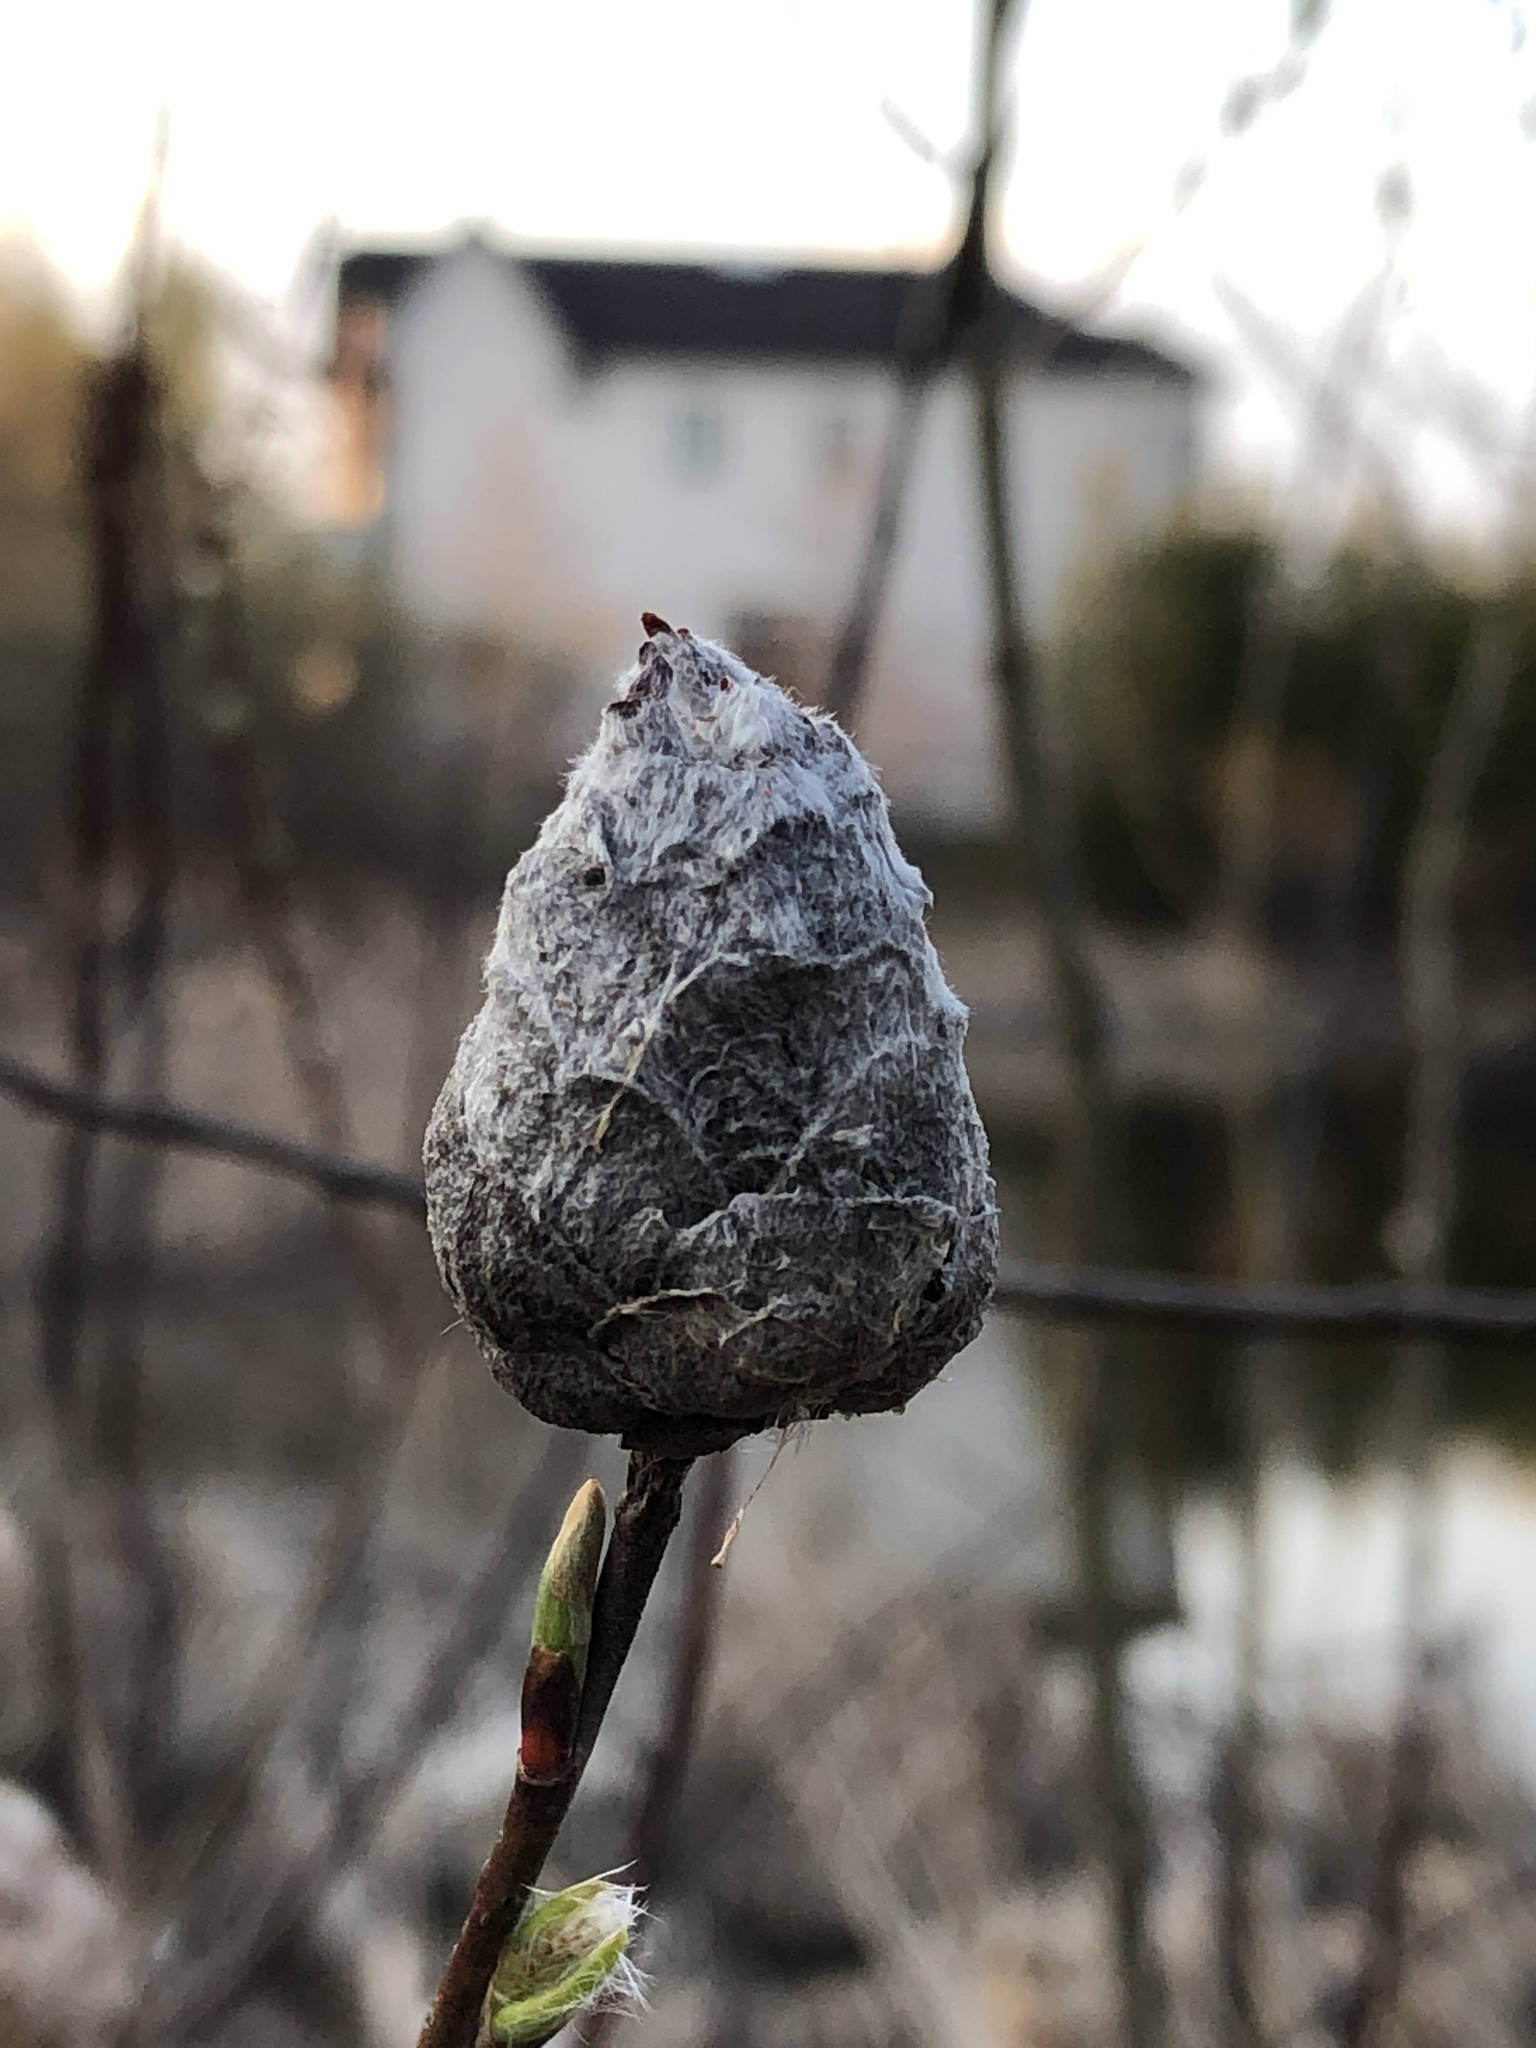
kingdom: Animalia
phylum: Arthropoda
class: Insecta
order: Diptera
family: Cecidomyiidae
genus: Rabdophaga
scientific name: Rabdophaga strobiloides
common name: Willow pinecone gall midge
